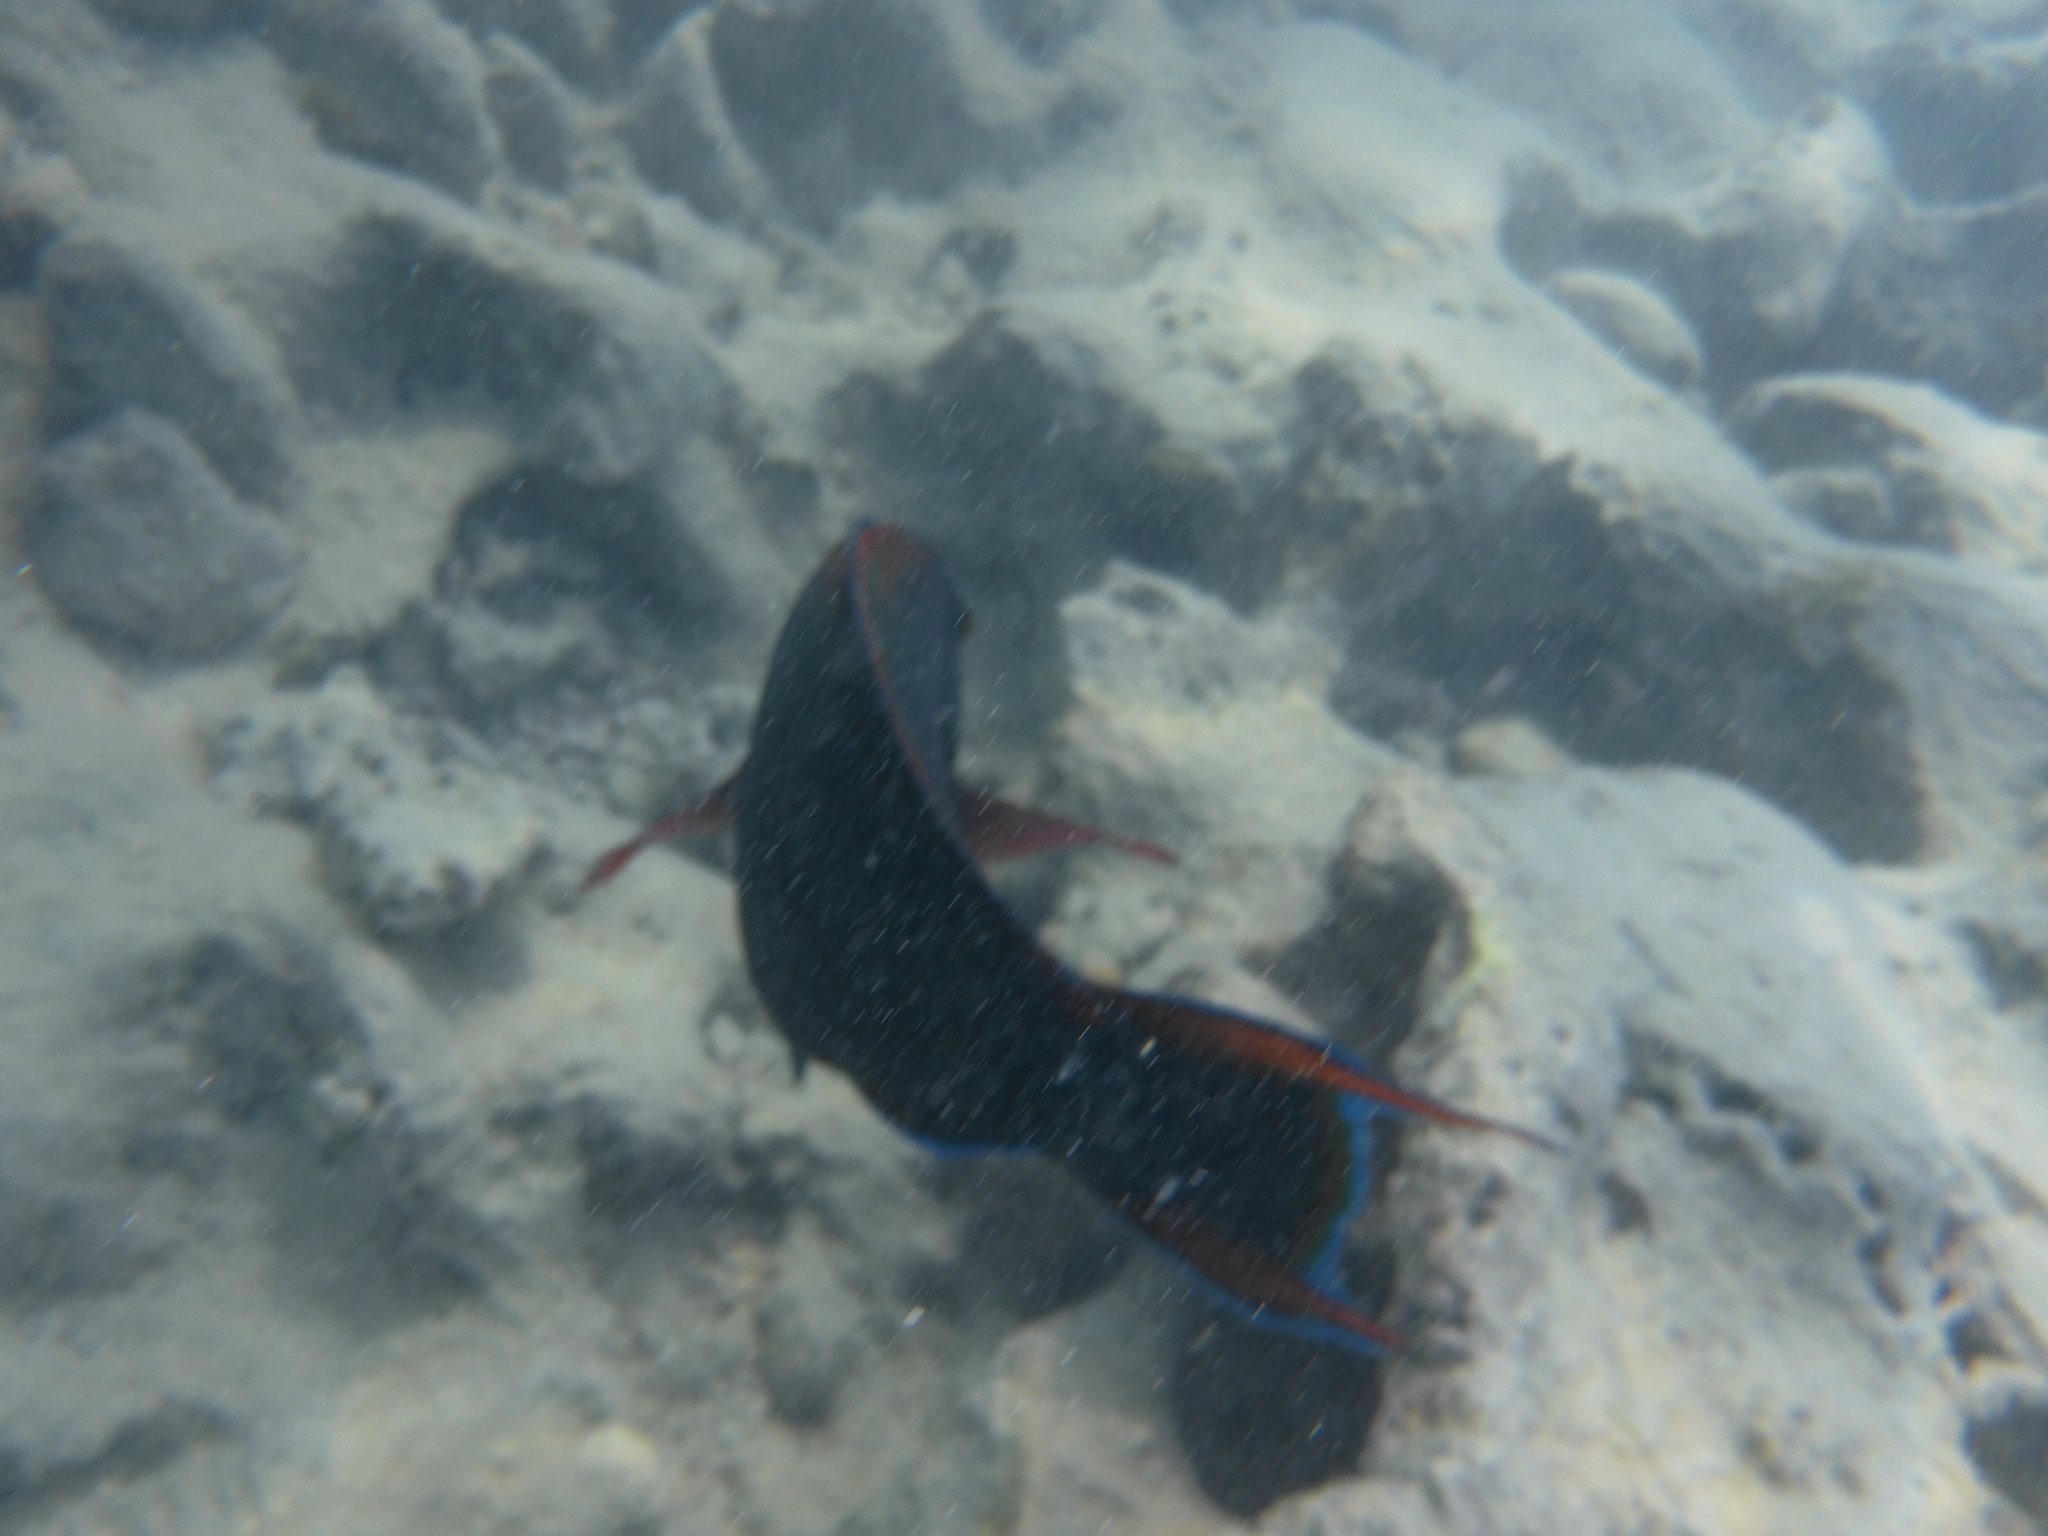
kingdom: Animalia
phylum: Chordata
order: Perciformes
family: Scaridae
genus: Scarus
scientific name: Scarus niger
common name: Dusky parrotfish
